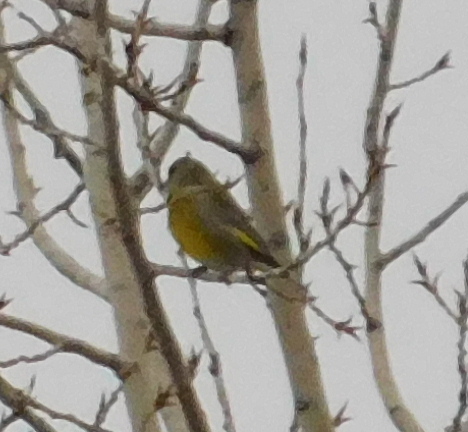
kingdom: Plantae
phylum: Tracheophyta
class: Liliopsida
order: Poales
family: Poaceae
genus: Chloris
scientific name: Chloris chloris
